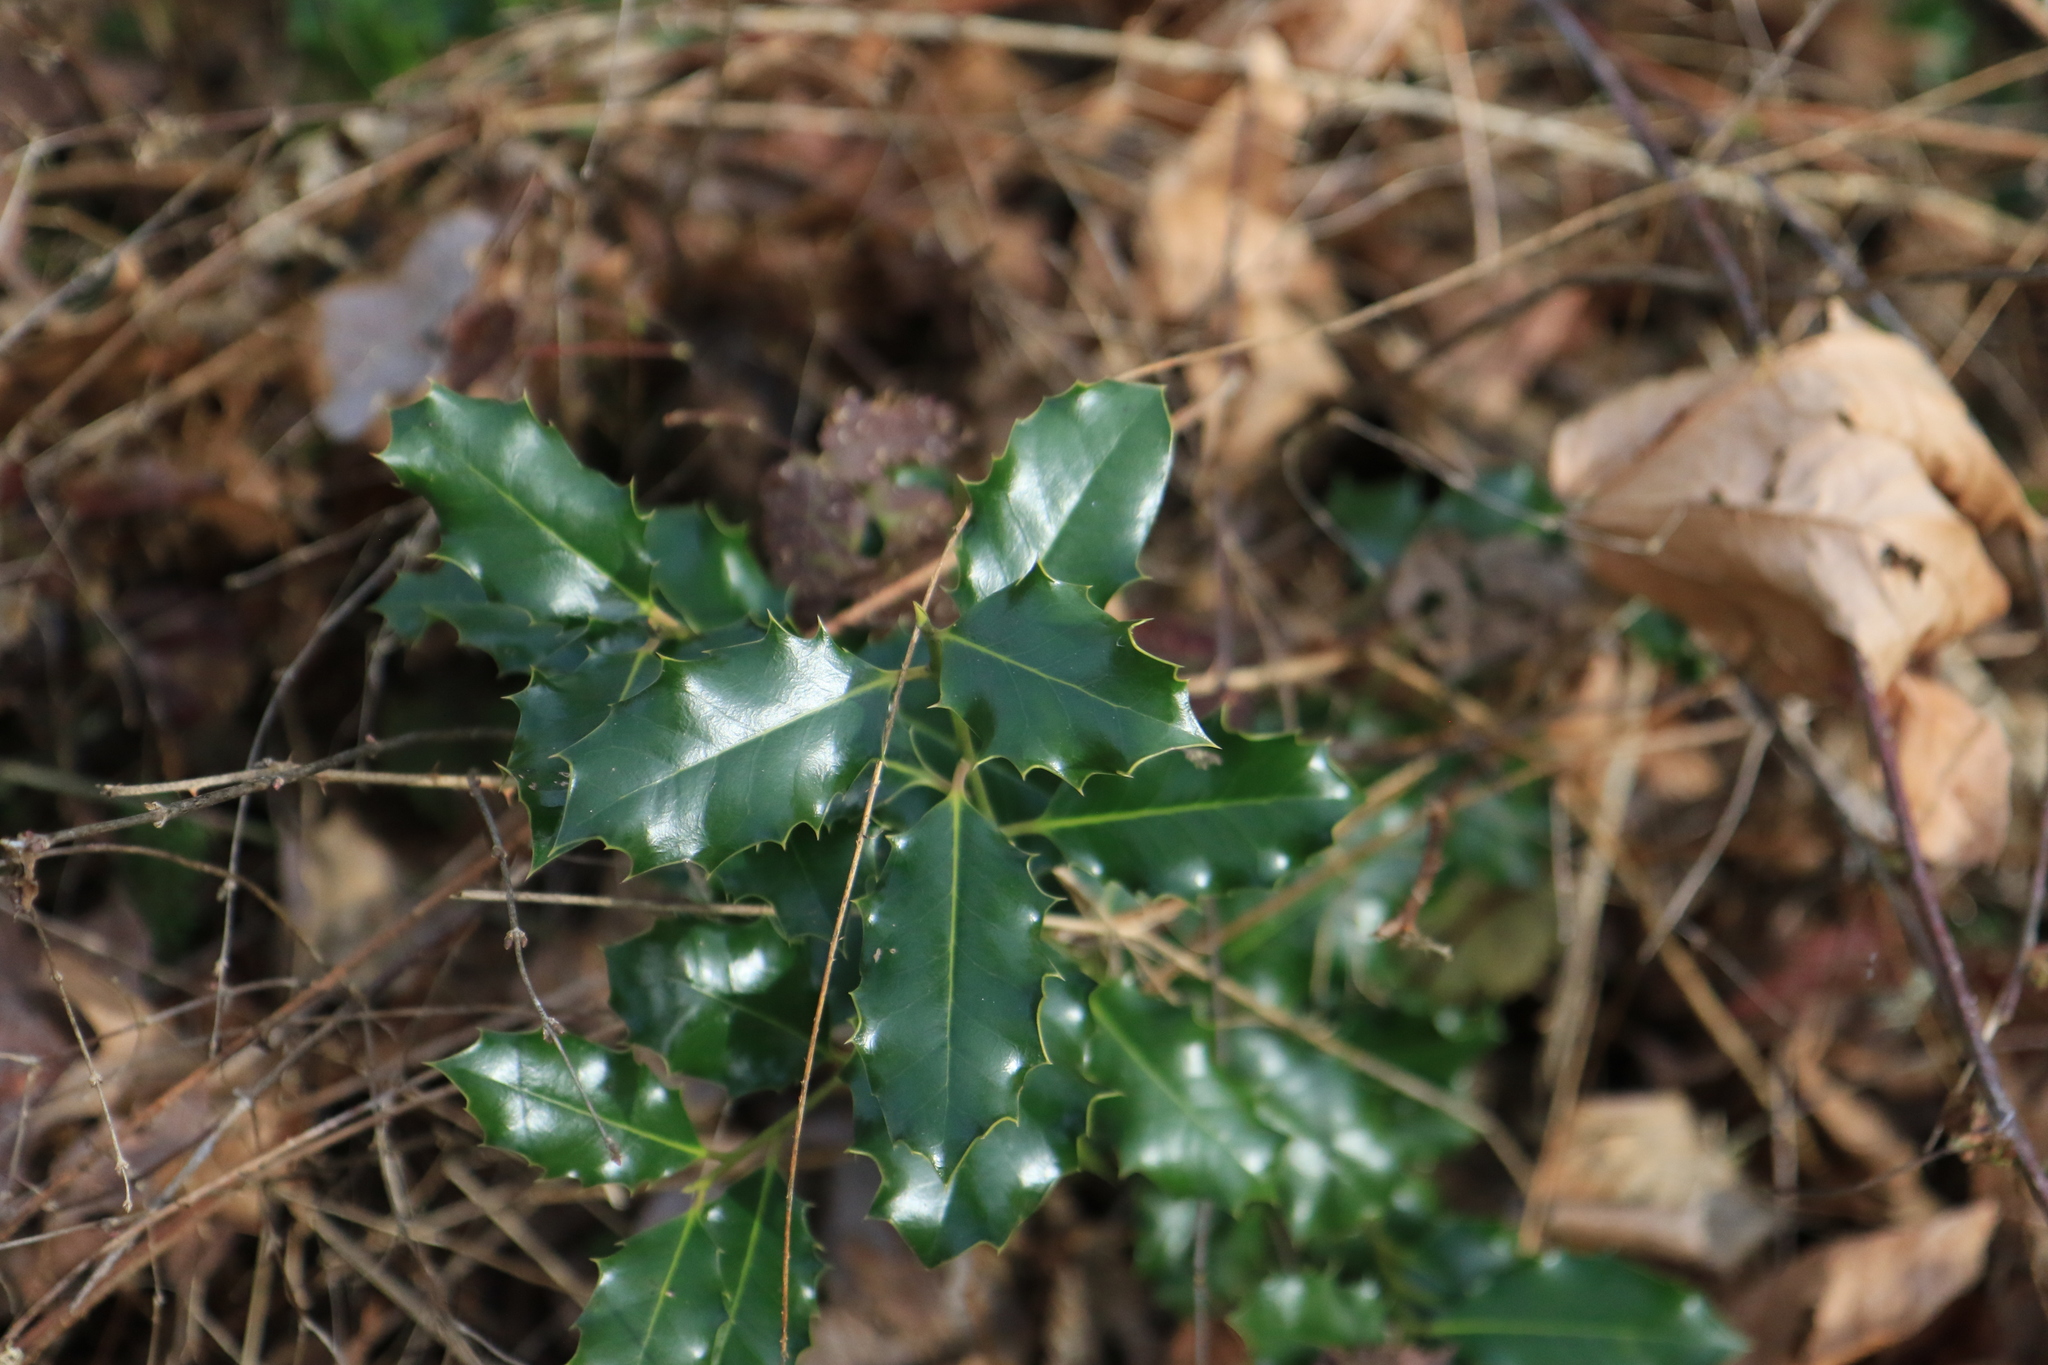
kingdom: Plantae
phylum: Tracheophyta
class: Magnoliopsida
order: Aquifoliales
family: Aquifoliaceae
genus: Ilex
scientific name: Ilex aquifolium
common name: English holly
